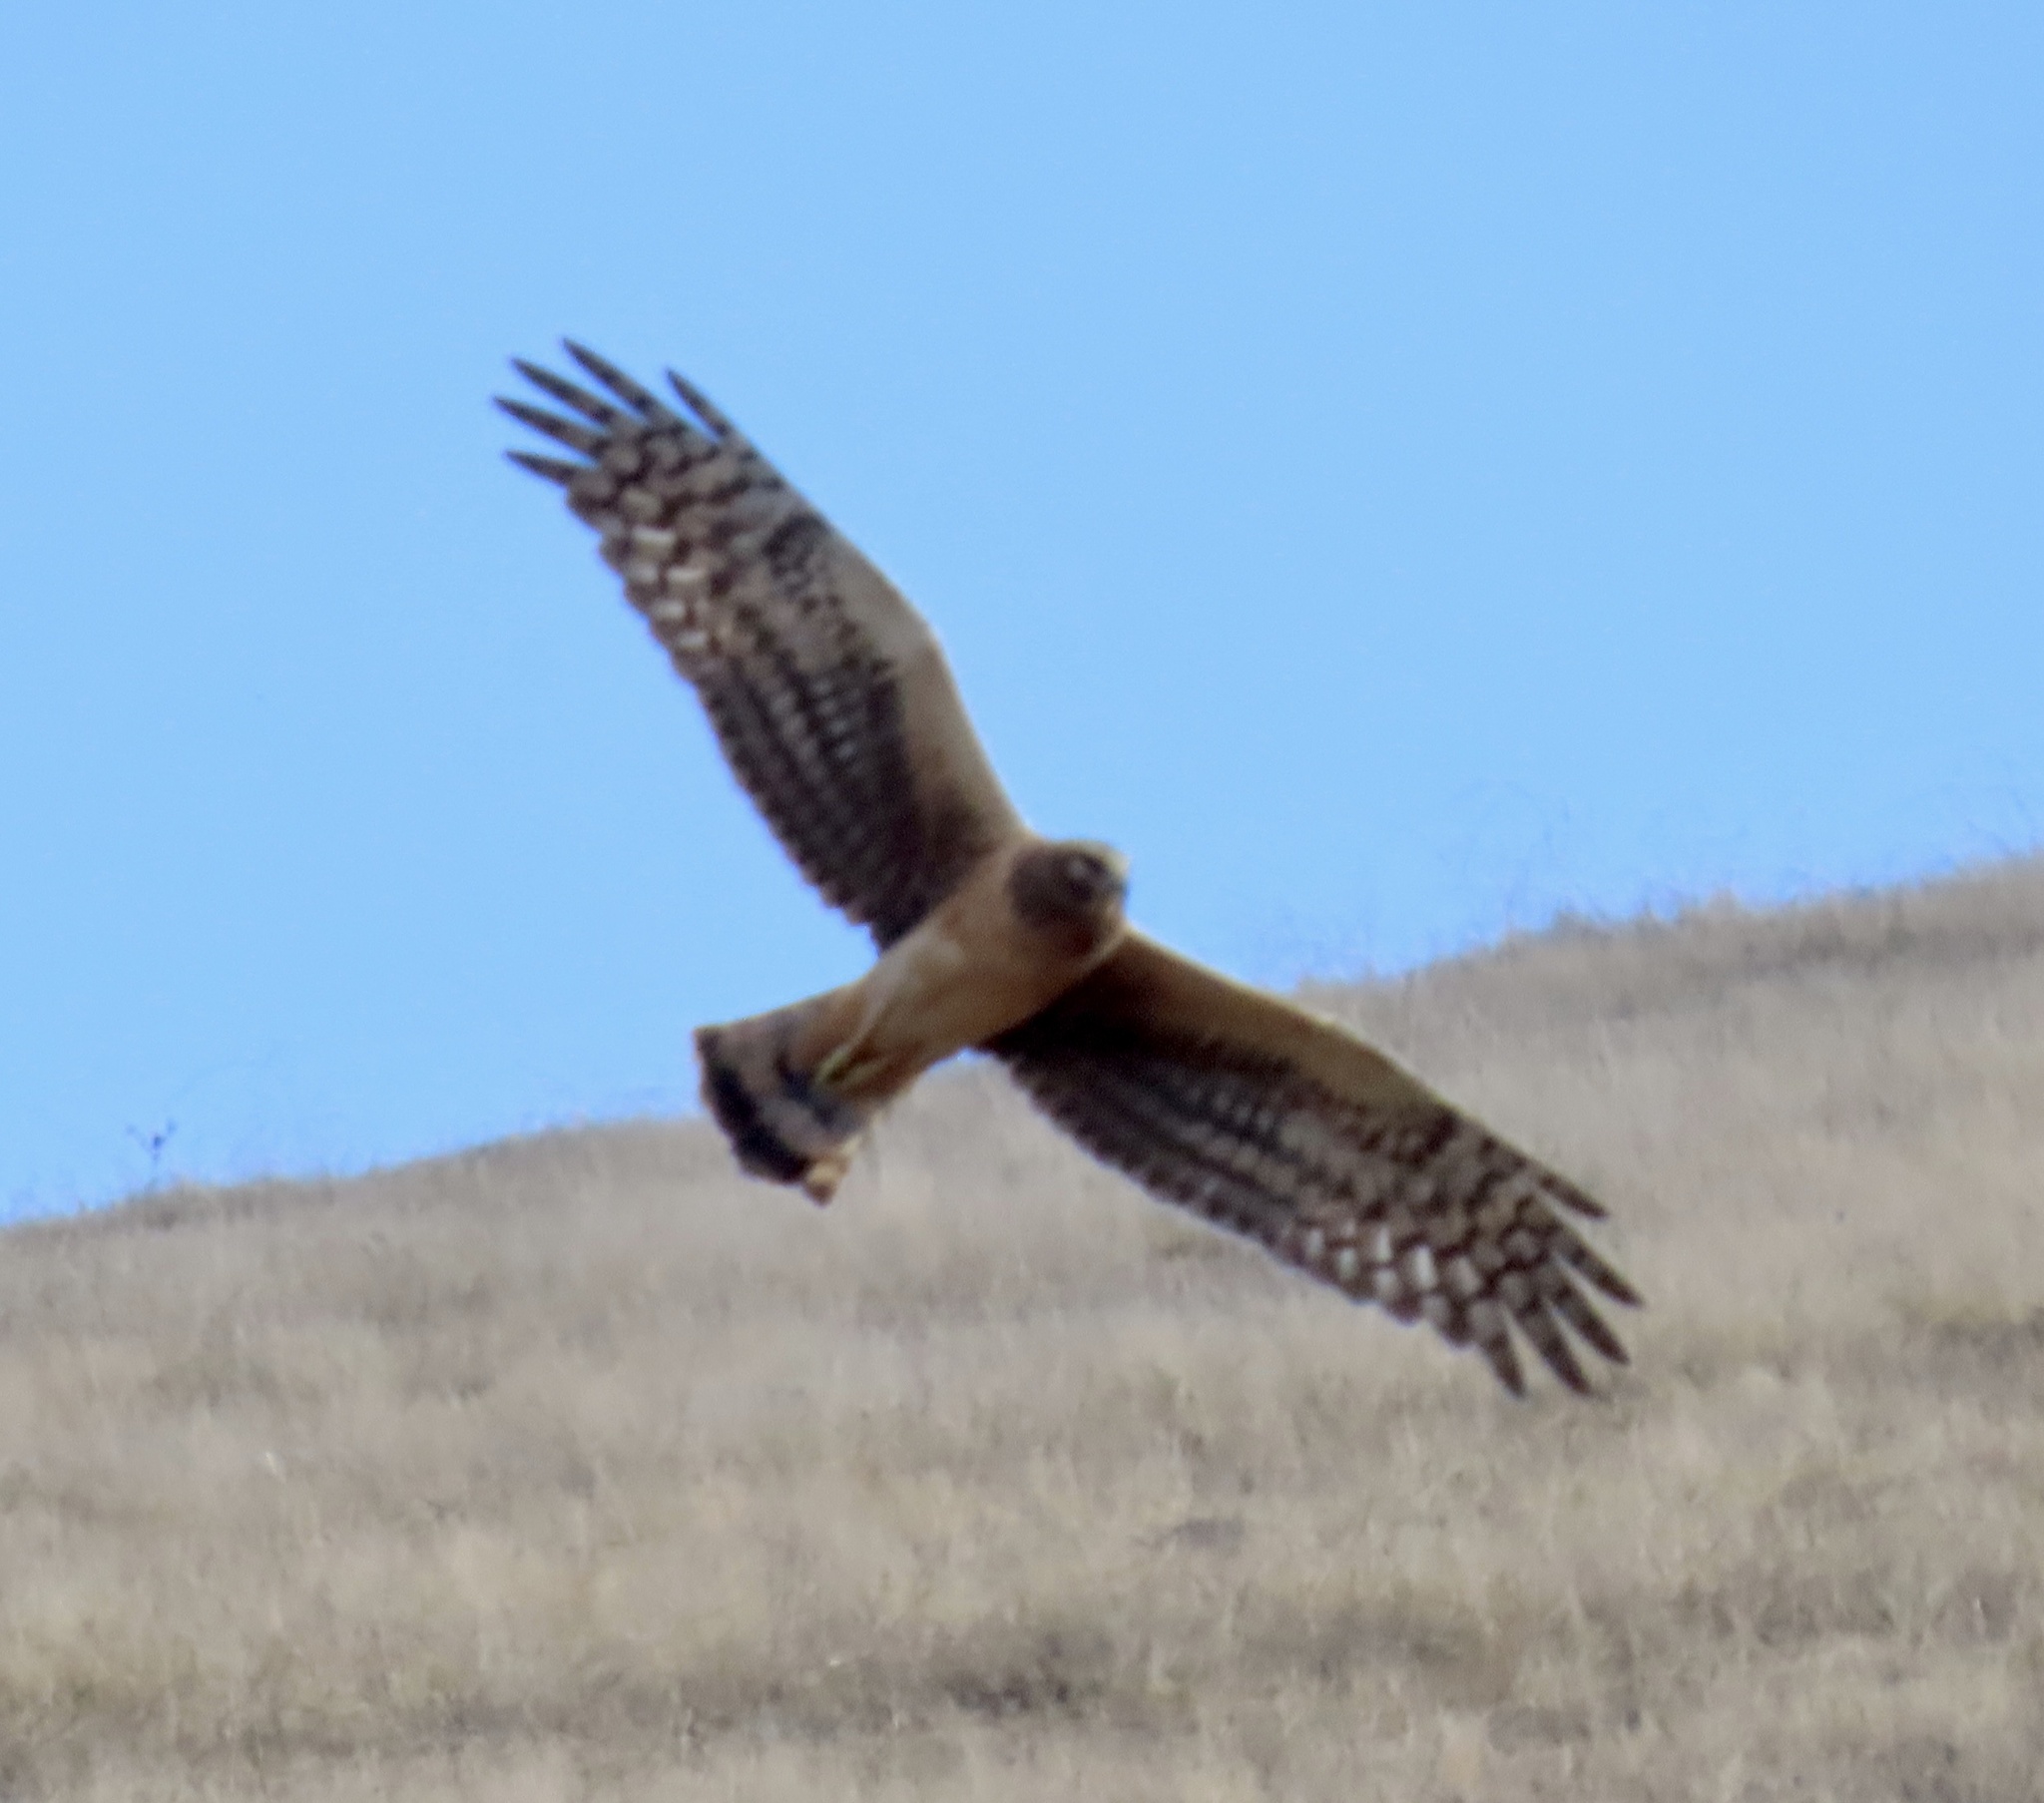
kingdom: Animalia
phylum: Chordata
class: Aves
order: Accipitriformes
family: Accipitridae
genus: Circus
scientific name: Circus cyaneus
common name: Hen harrier
